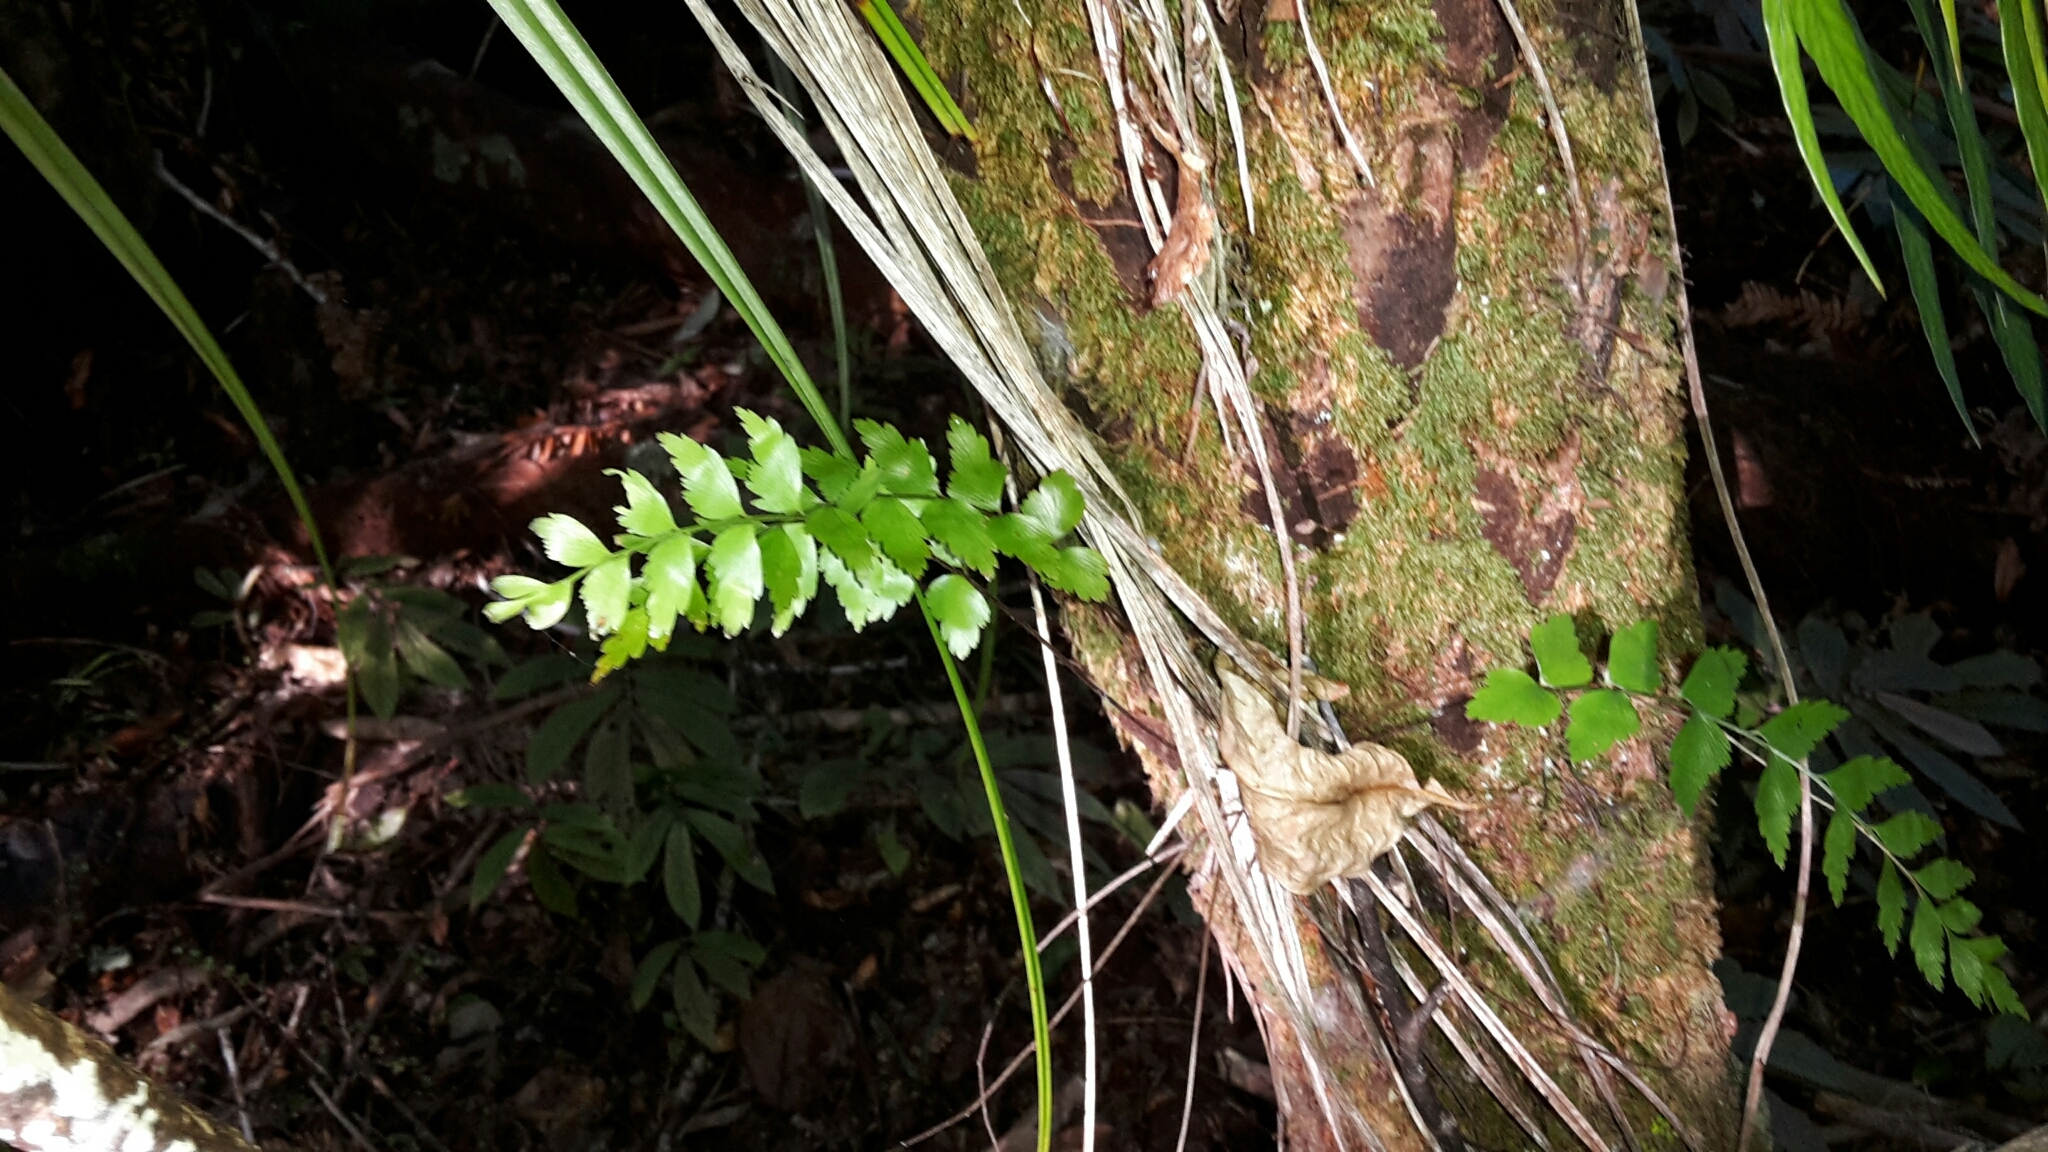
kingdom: Plantae
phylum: Tracheophyta
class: Polypodiopsida
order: Polypodiales
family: Aspleniaceae
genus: Asplenium
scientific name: Asplenium polyodon
